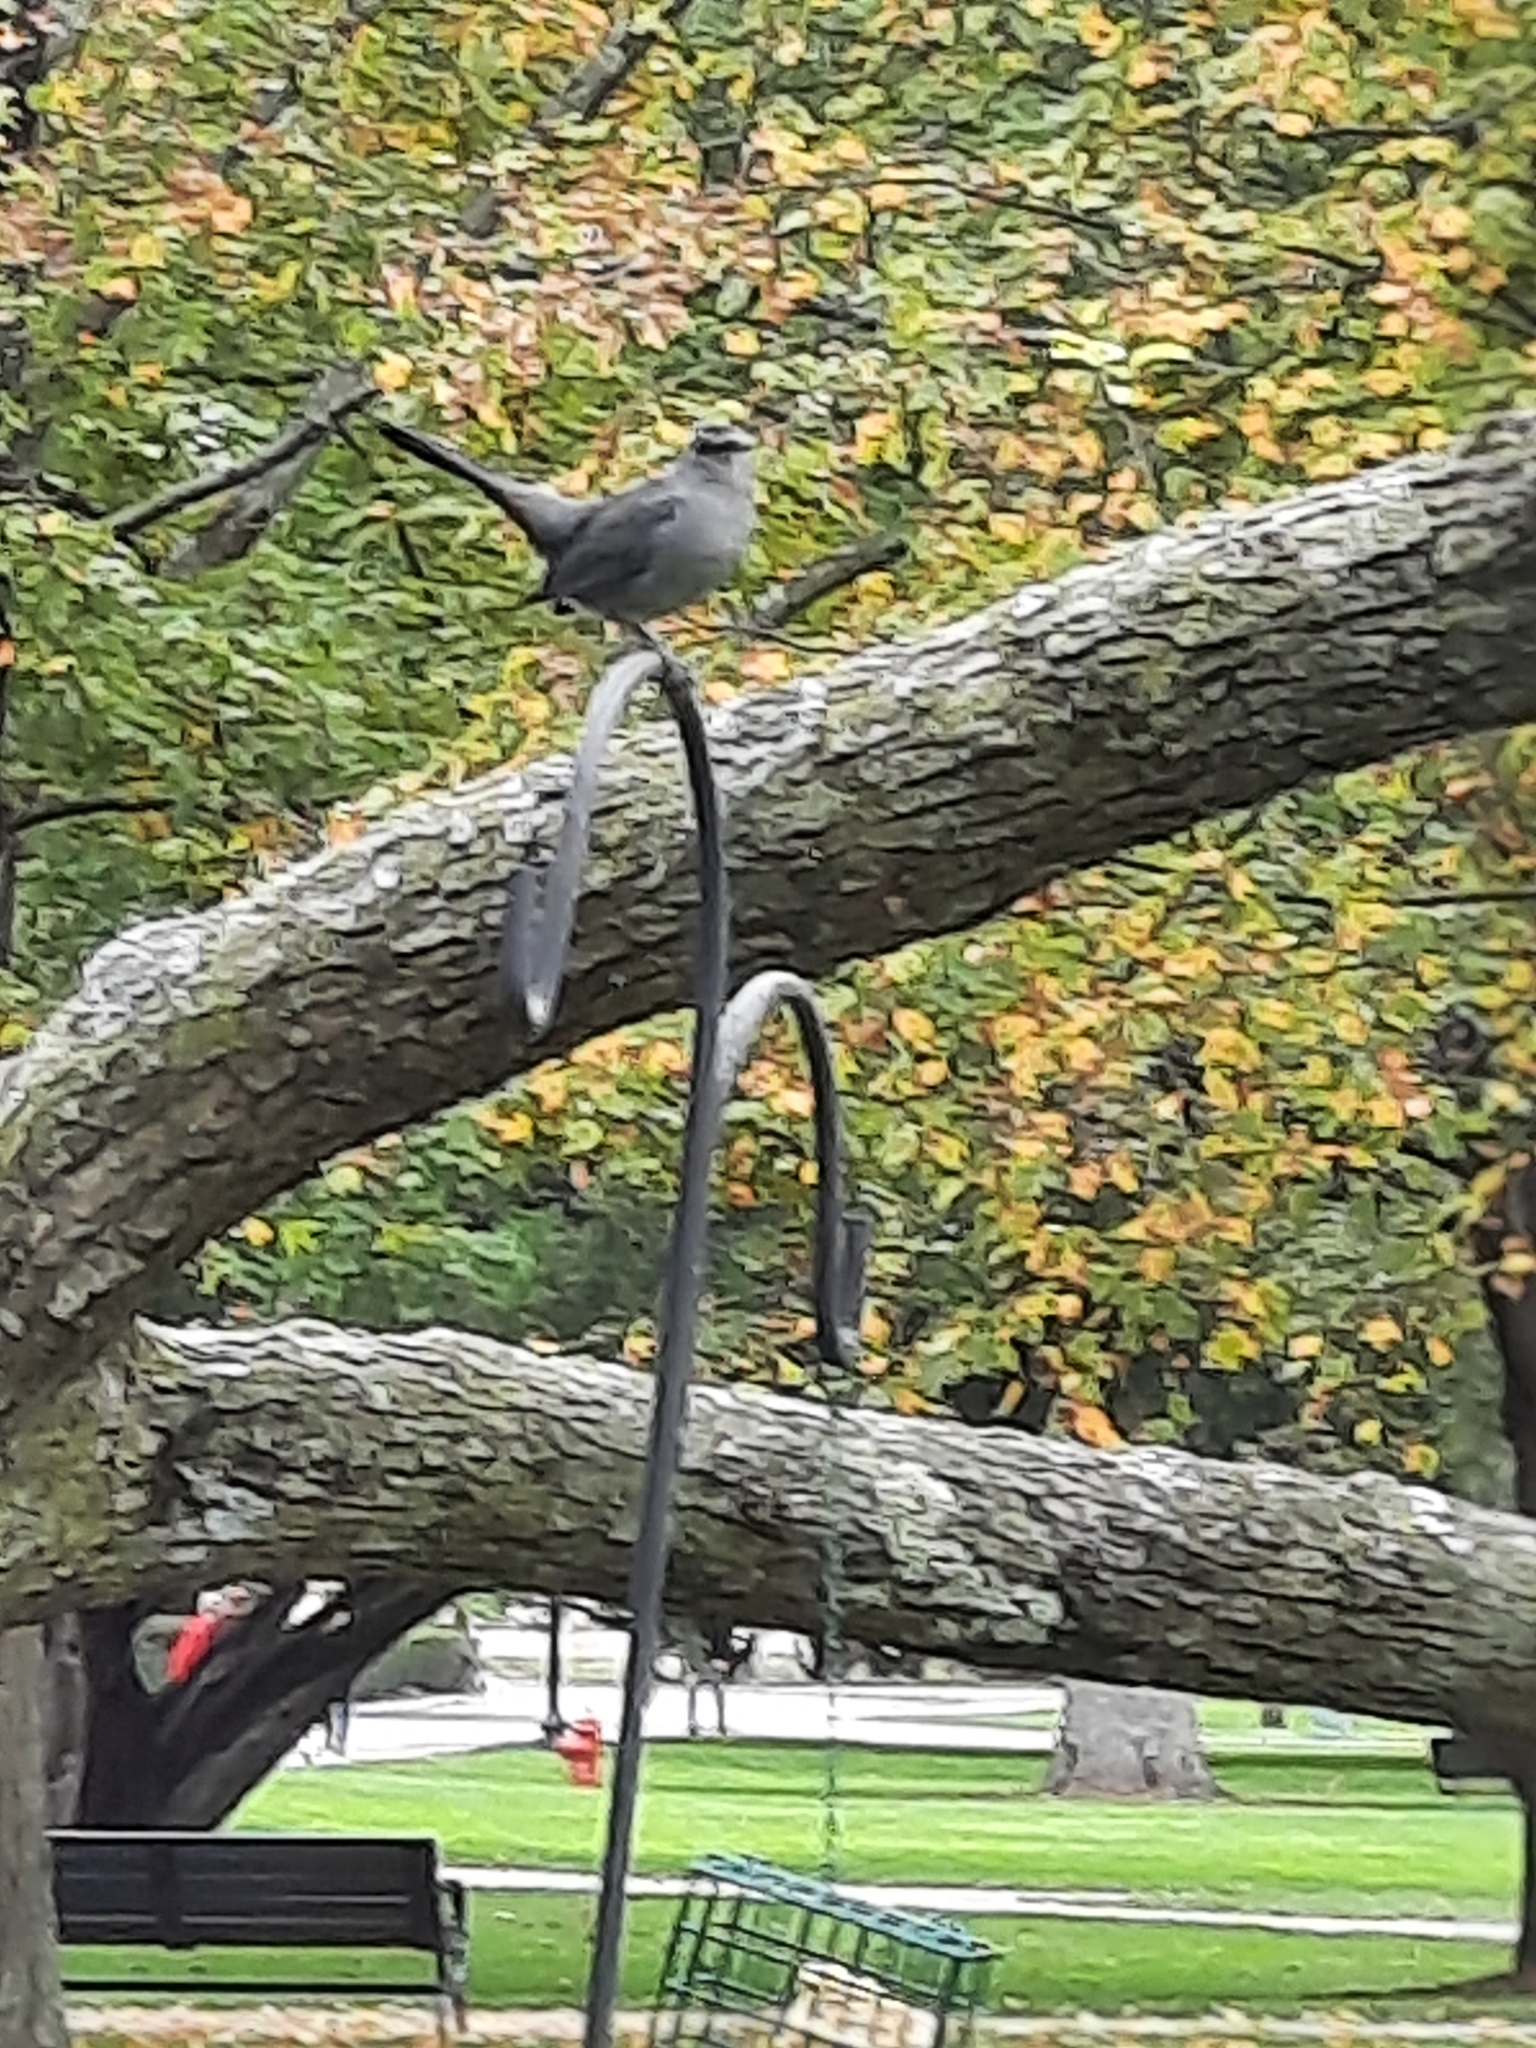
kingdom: Animalia
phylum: Chordata
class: Aves
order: Passeriformes
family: Mimidae
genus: Dumetella
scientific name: Dumetella carolinensis
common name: Gray catbird
